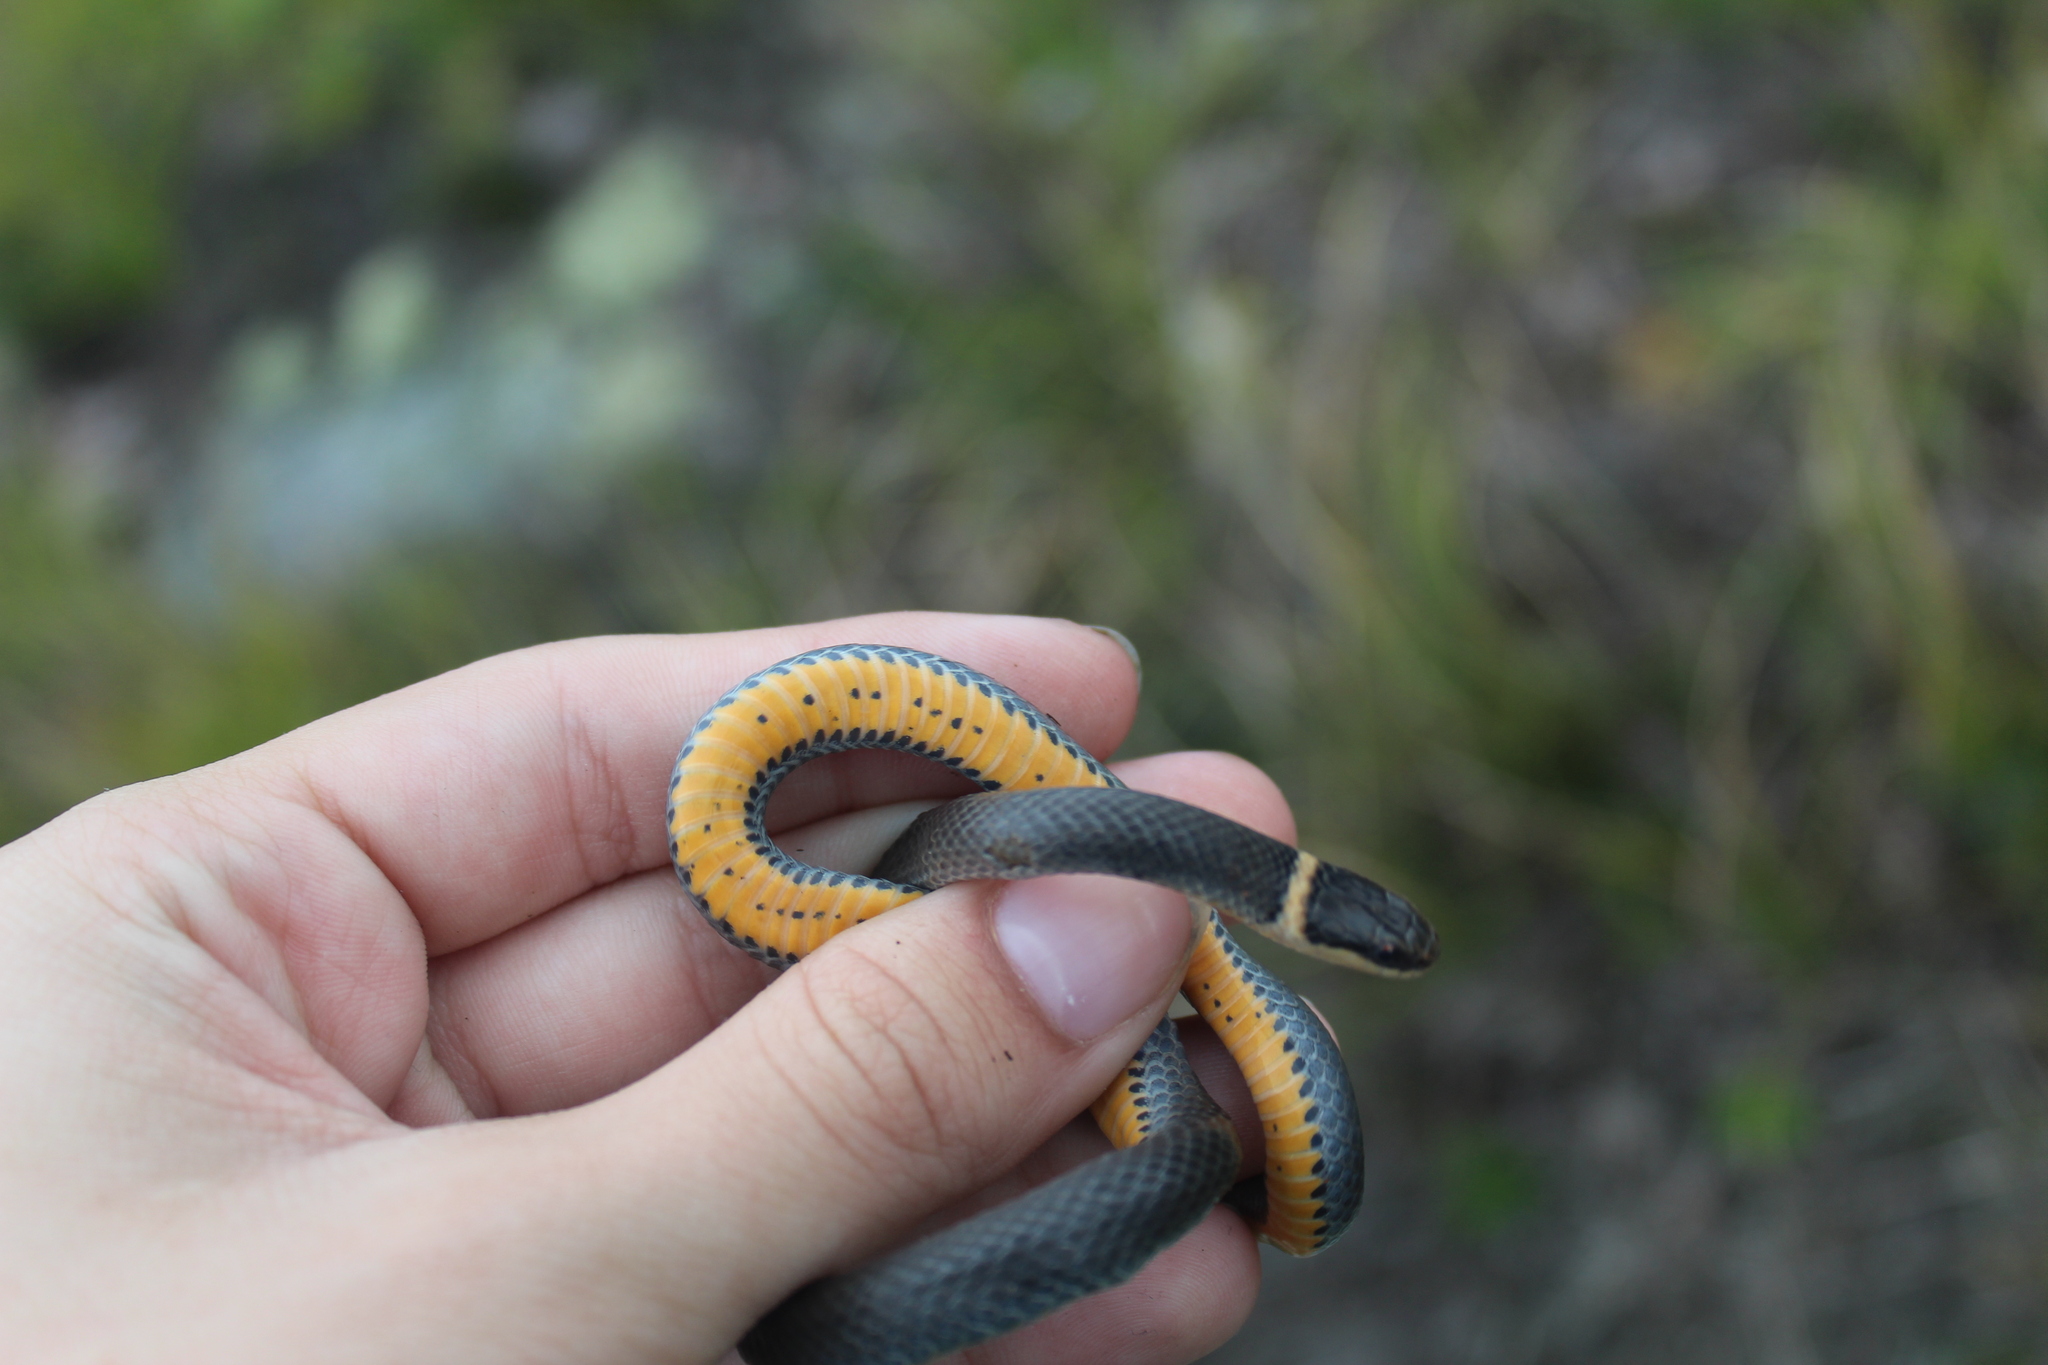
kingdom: Animalia
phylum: Chordata
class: Squamata
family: Colubridae
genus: Diadophis
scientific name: Diadophis punctatus
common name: Ringneck snake
